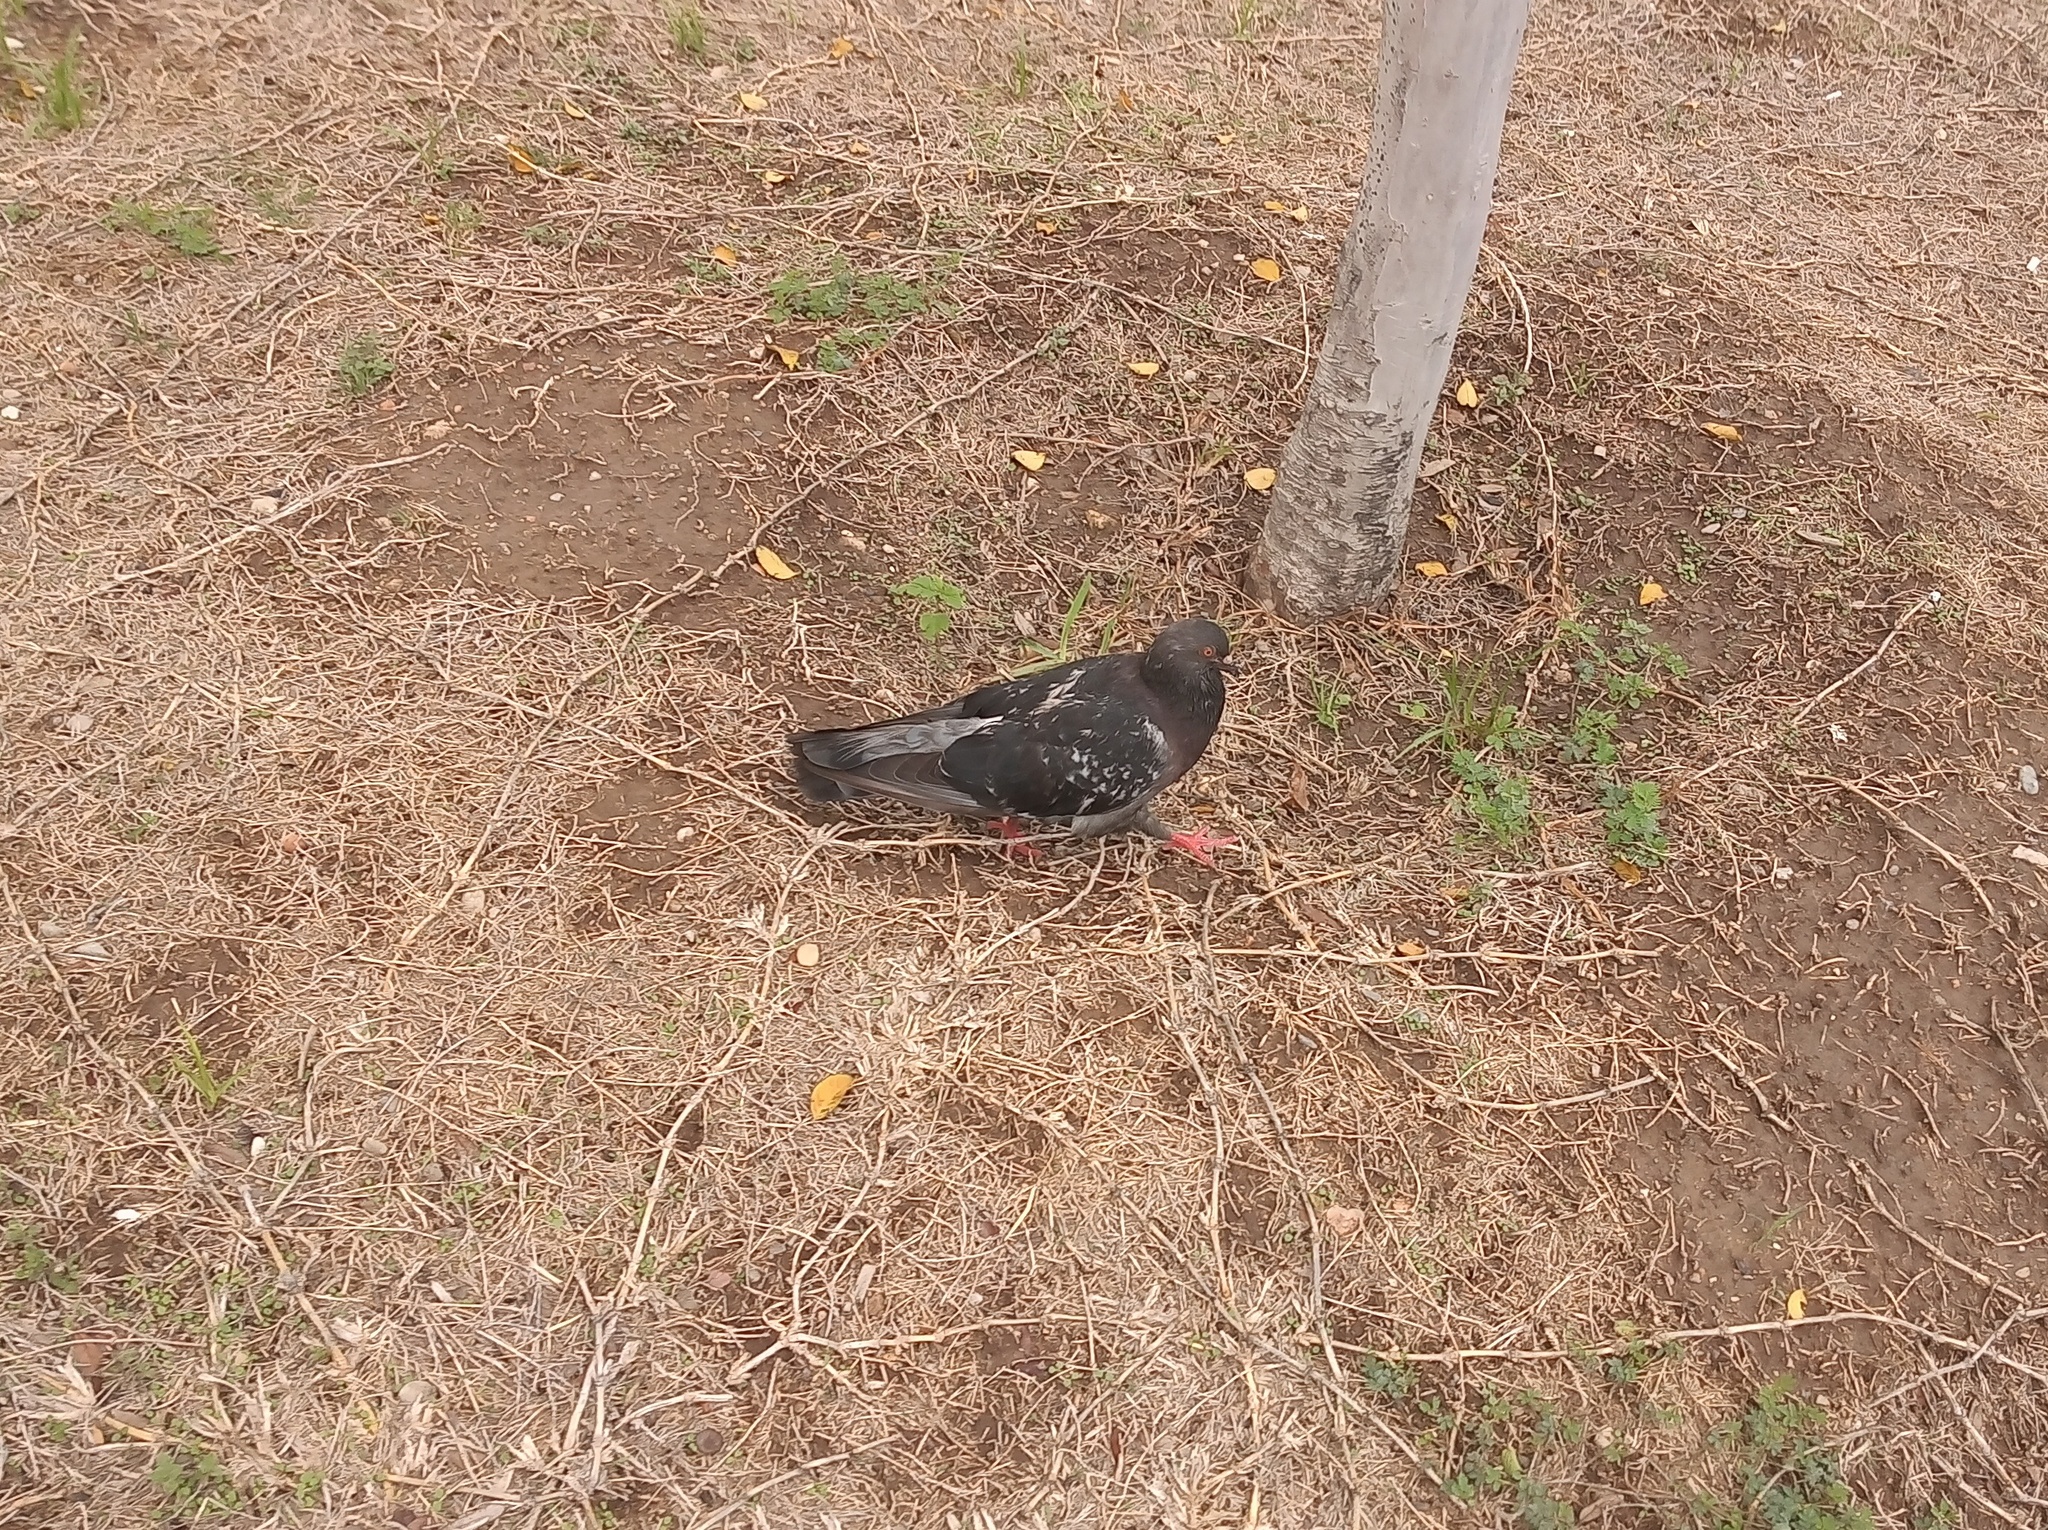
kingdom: Animalia
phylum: Chordata
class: Aves
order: Columbiformes
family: Columbidae
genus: Columba
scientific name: Columba livia
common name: Rock pigeon
